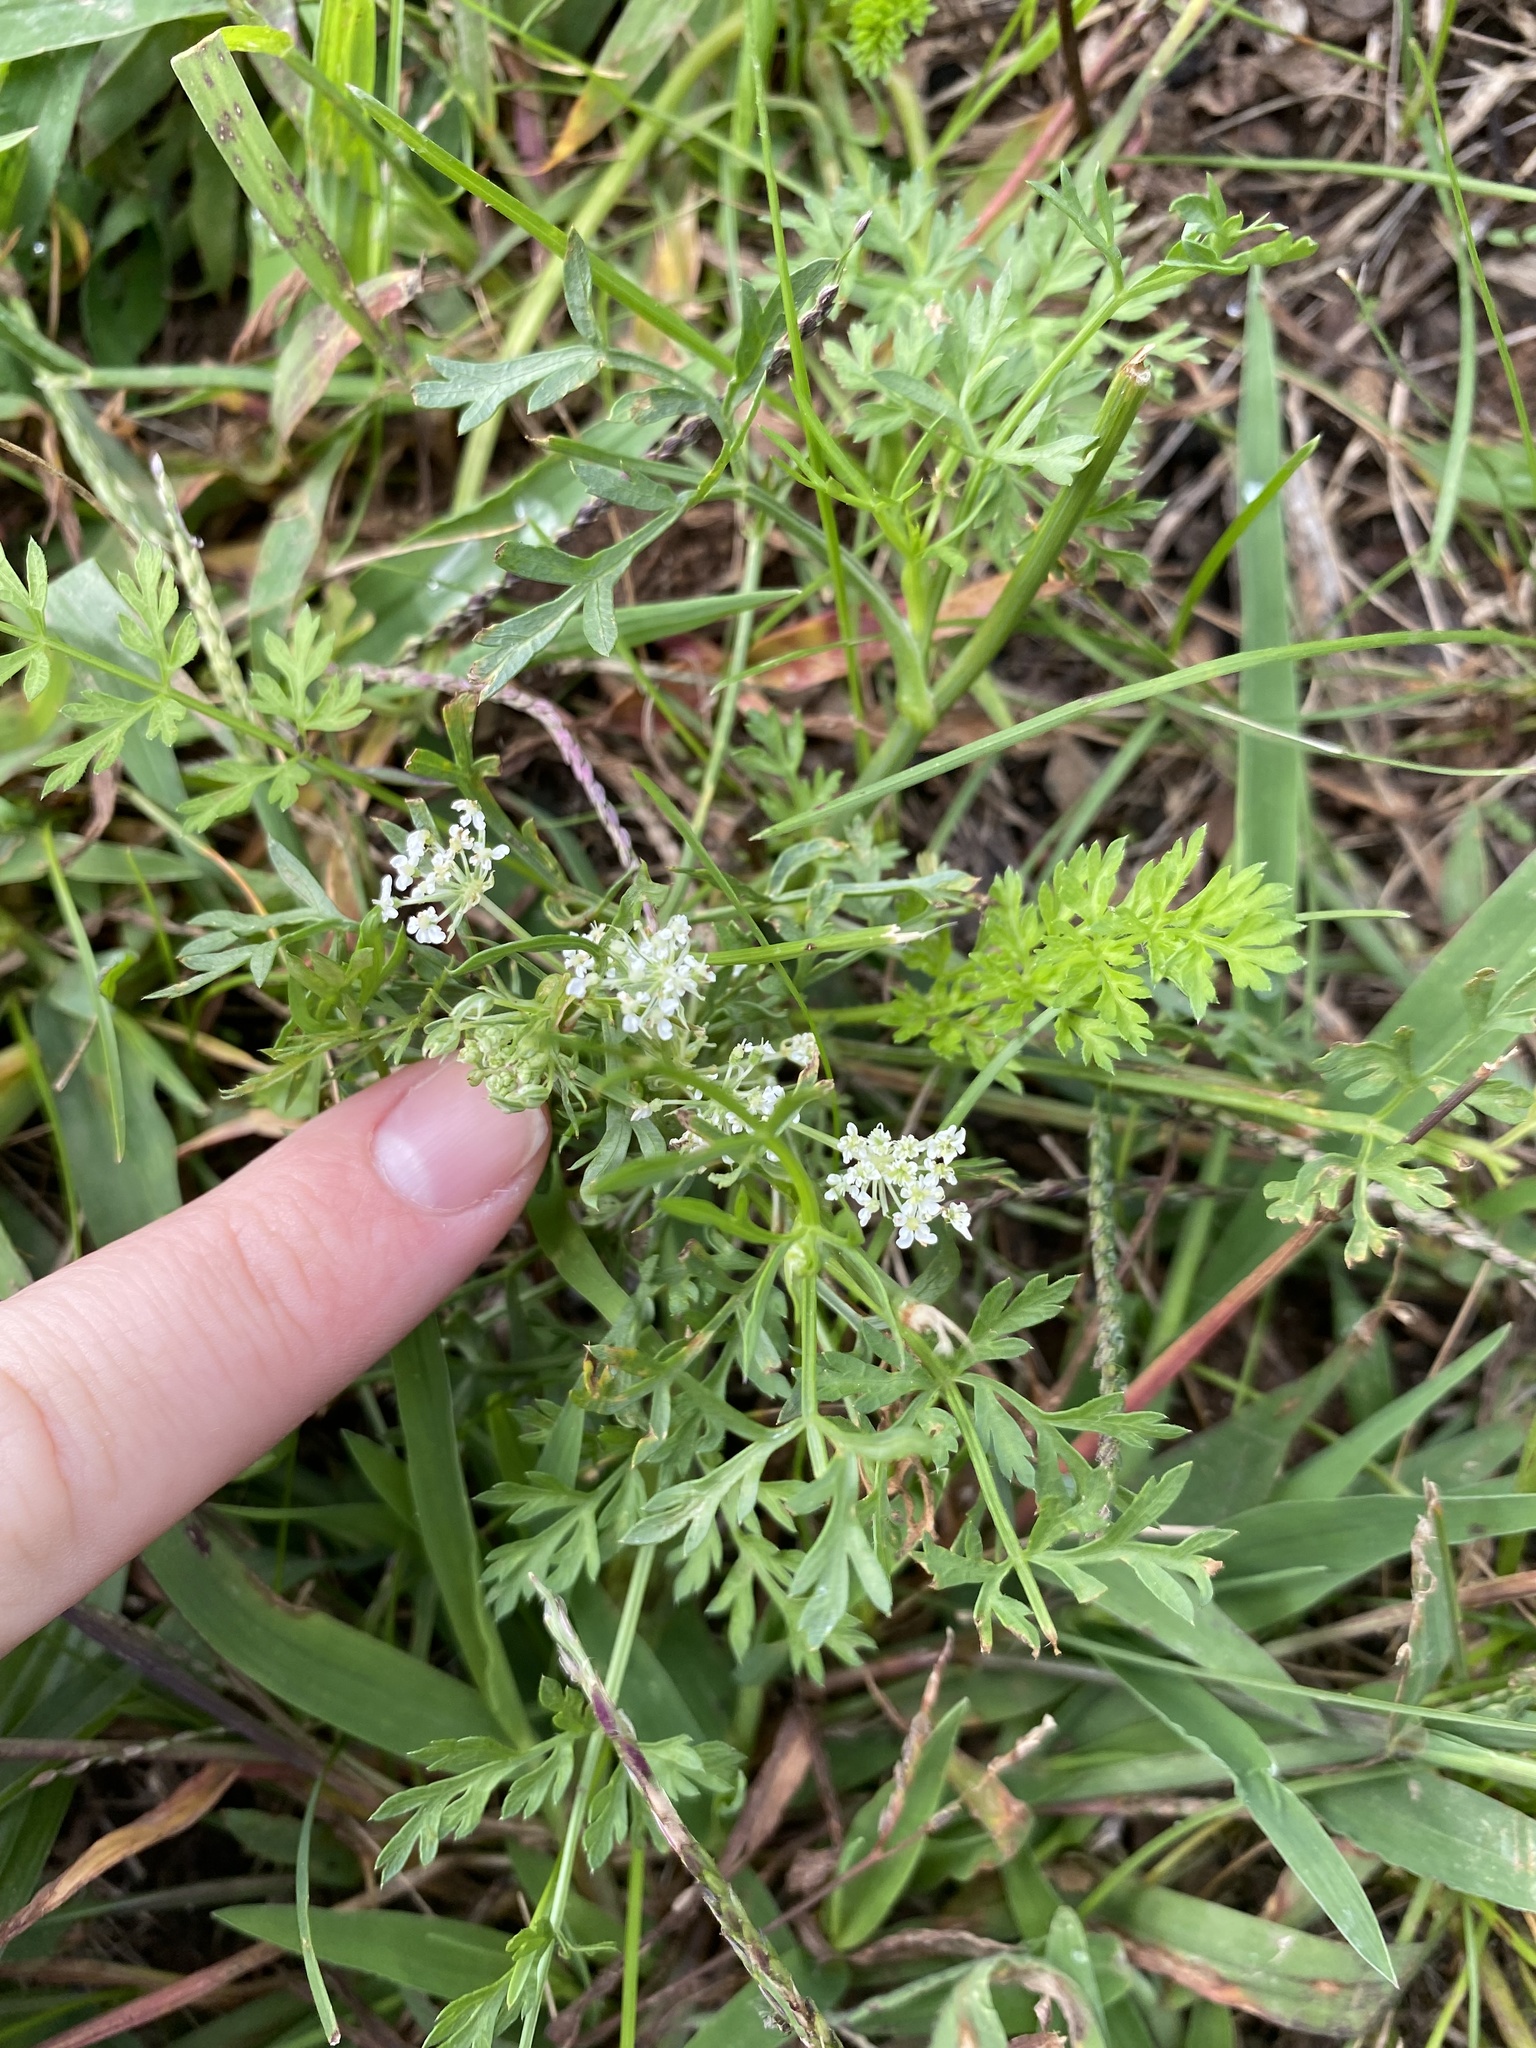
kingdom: Plantae
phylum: Tracheophyta
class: Magnoliopsida
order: Apiales
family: Apiaceae
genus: Daucus
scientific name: Daucus carota
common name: Wild carrot
